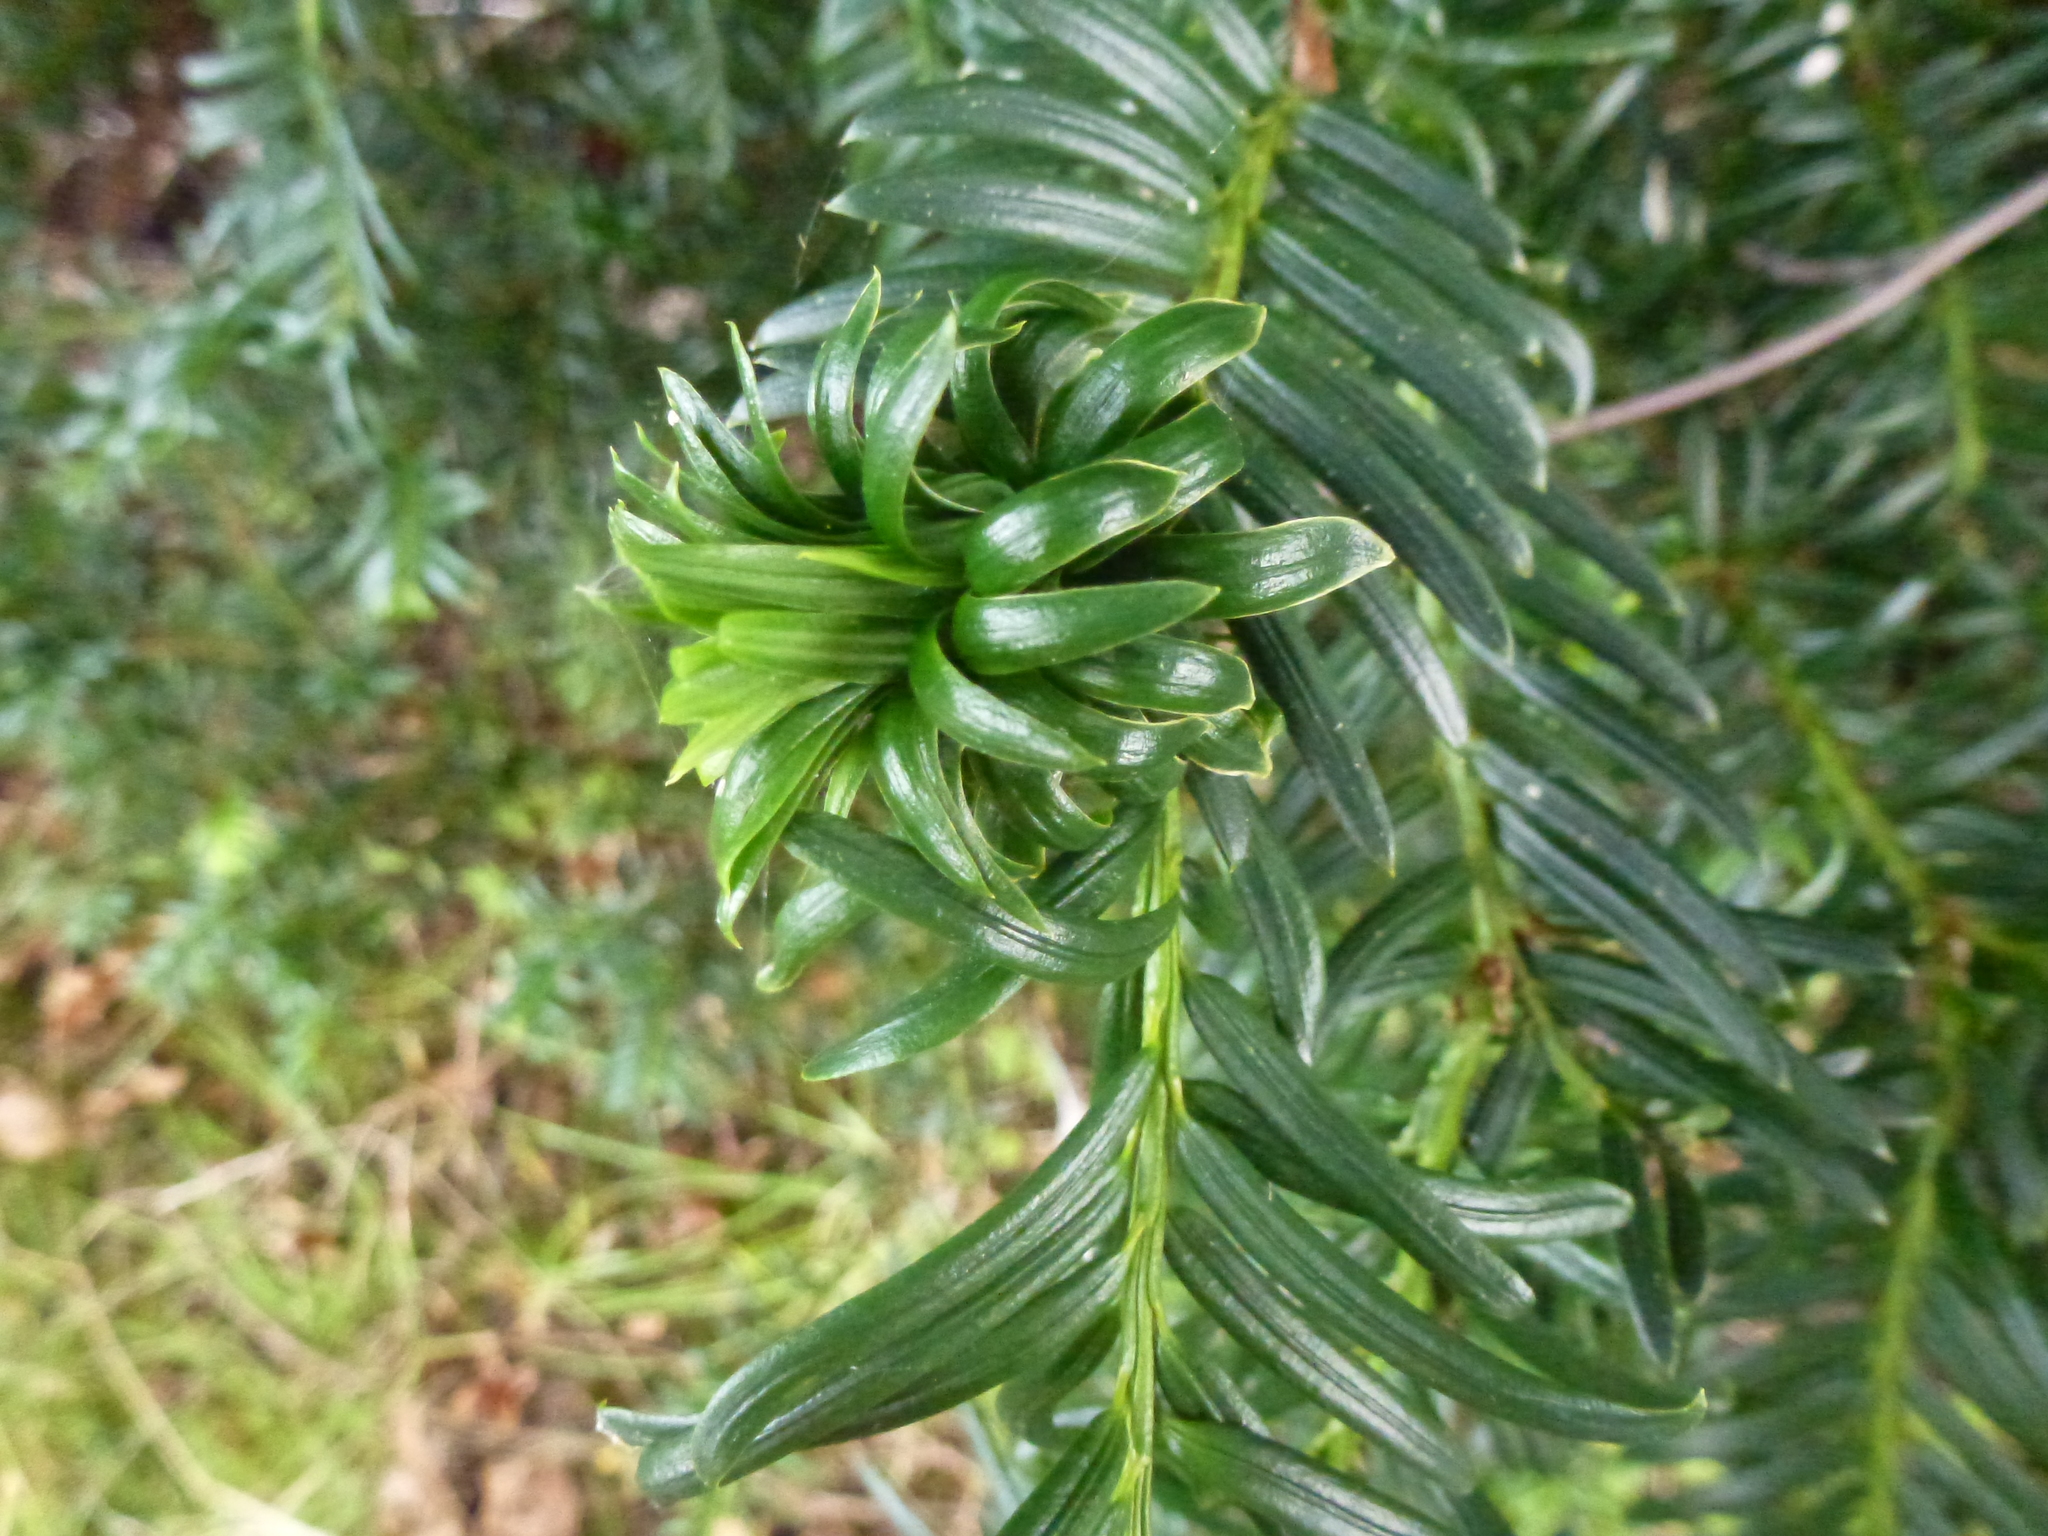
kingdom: Animalia
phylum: Arthropoda
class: Insecta
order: Diptera
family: Cecidomyiidae
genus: Taxomyia
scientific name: Taxomyia taxi
